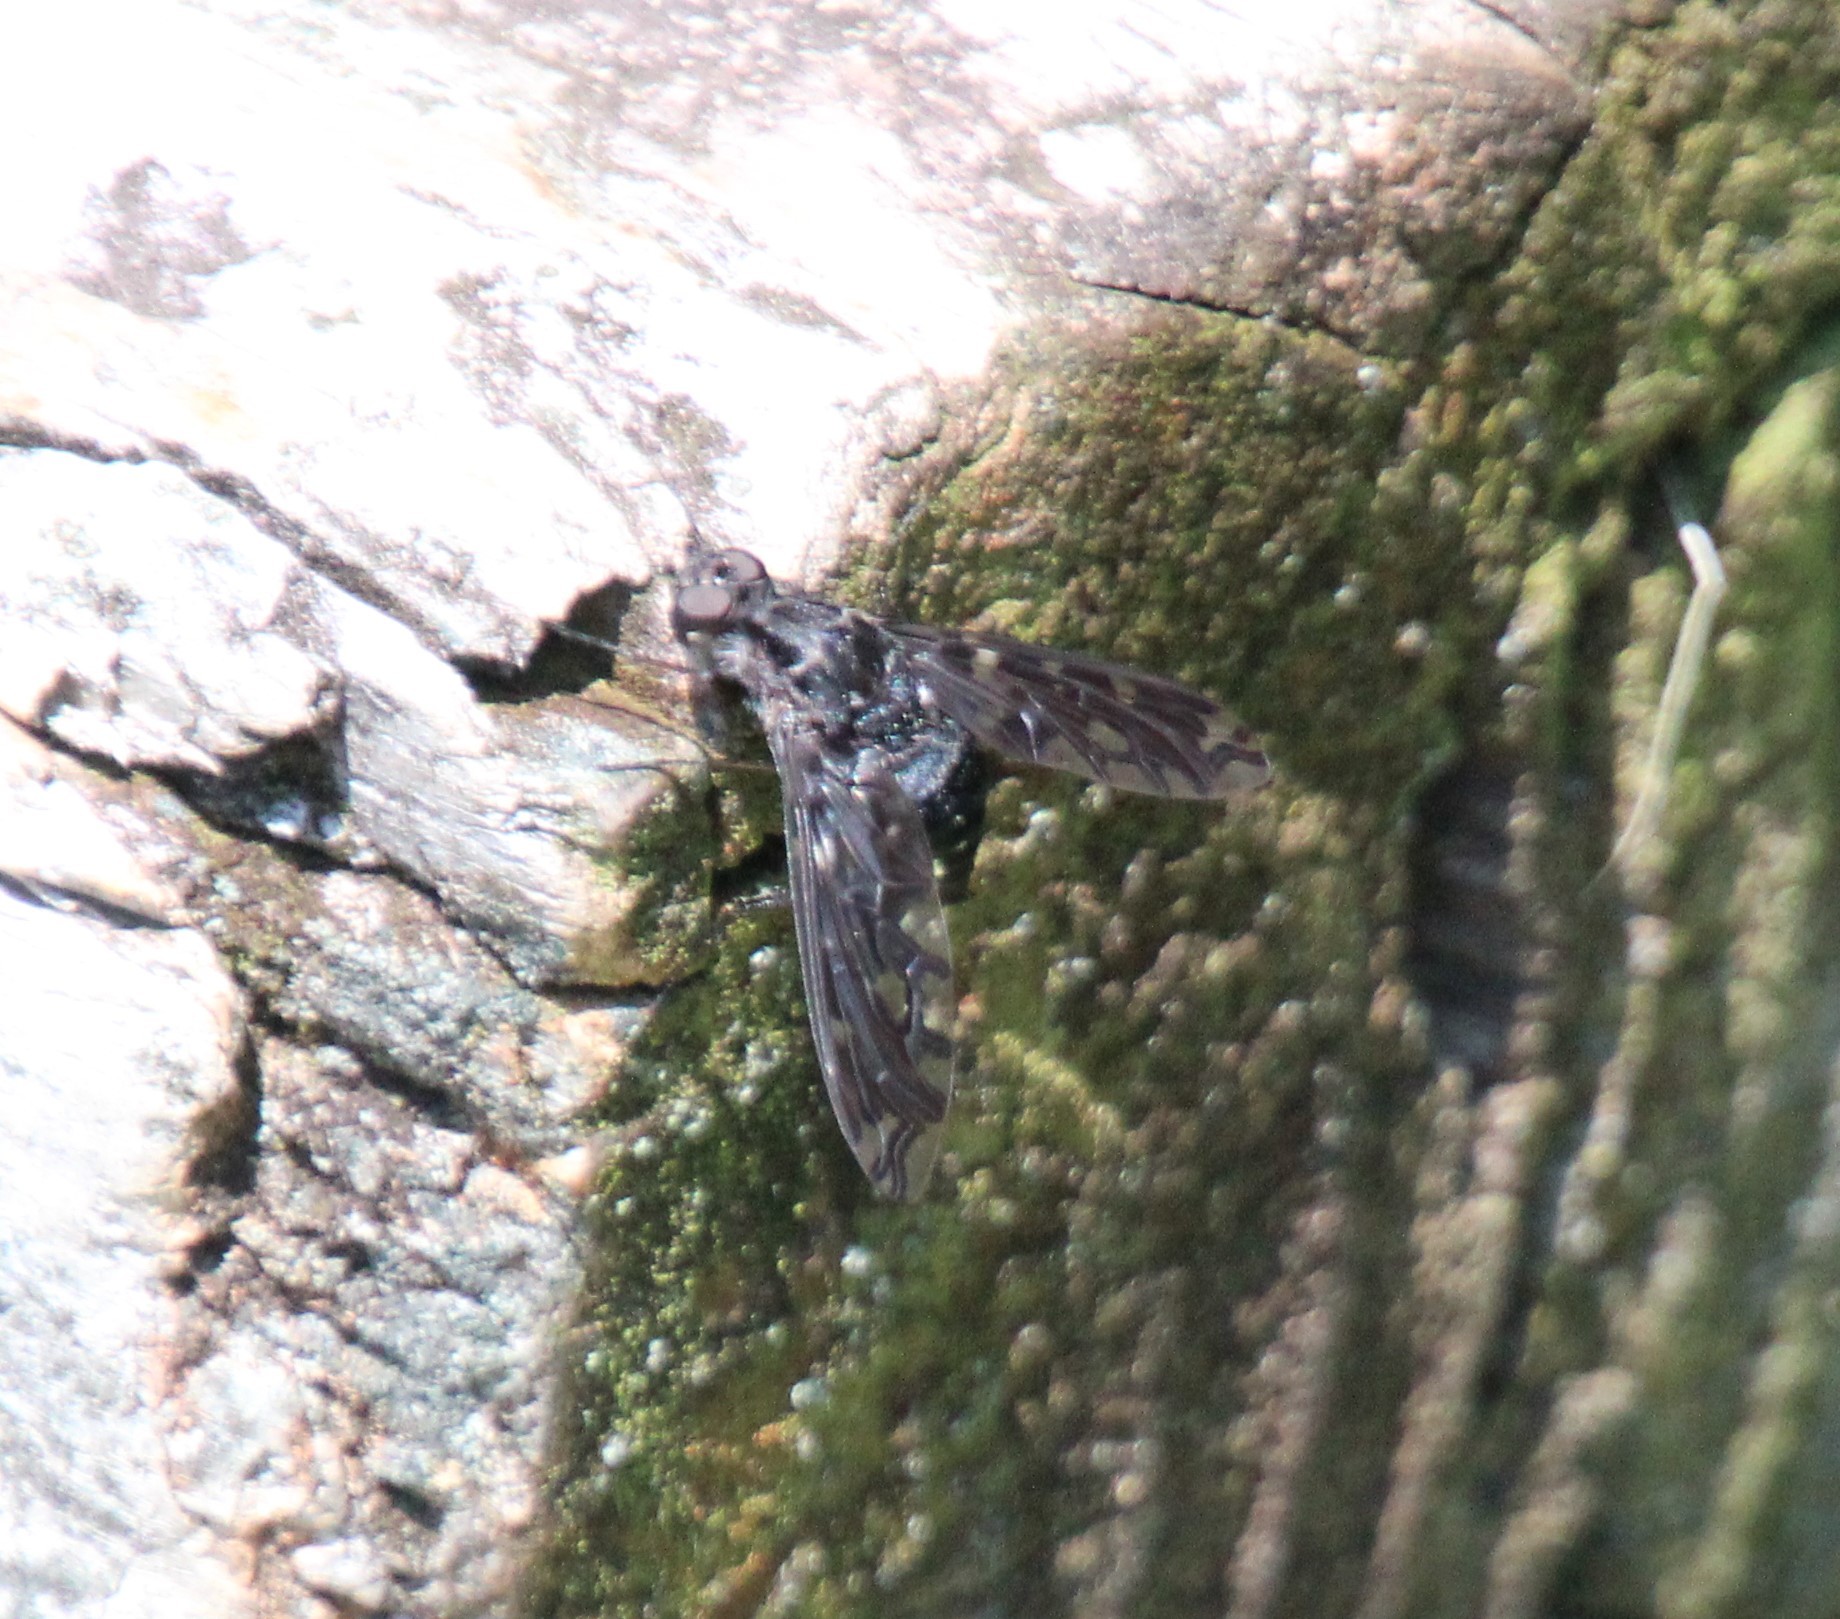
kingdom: Animalia
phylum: Arthropoda
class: Insecta
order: Diptera
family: Bombyliidae
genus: Xenox
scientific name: Xenox tigrinus
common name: Tiger bee fly
